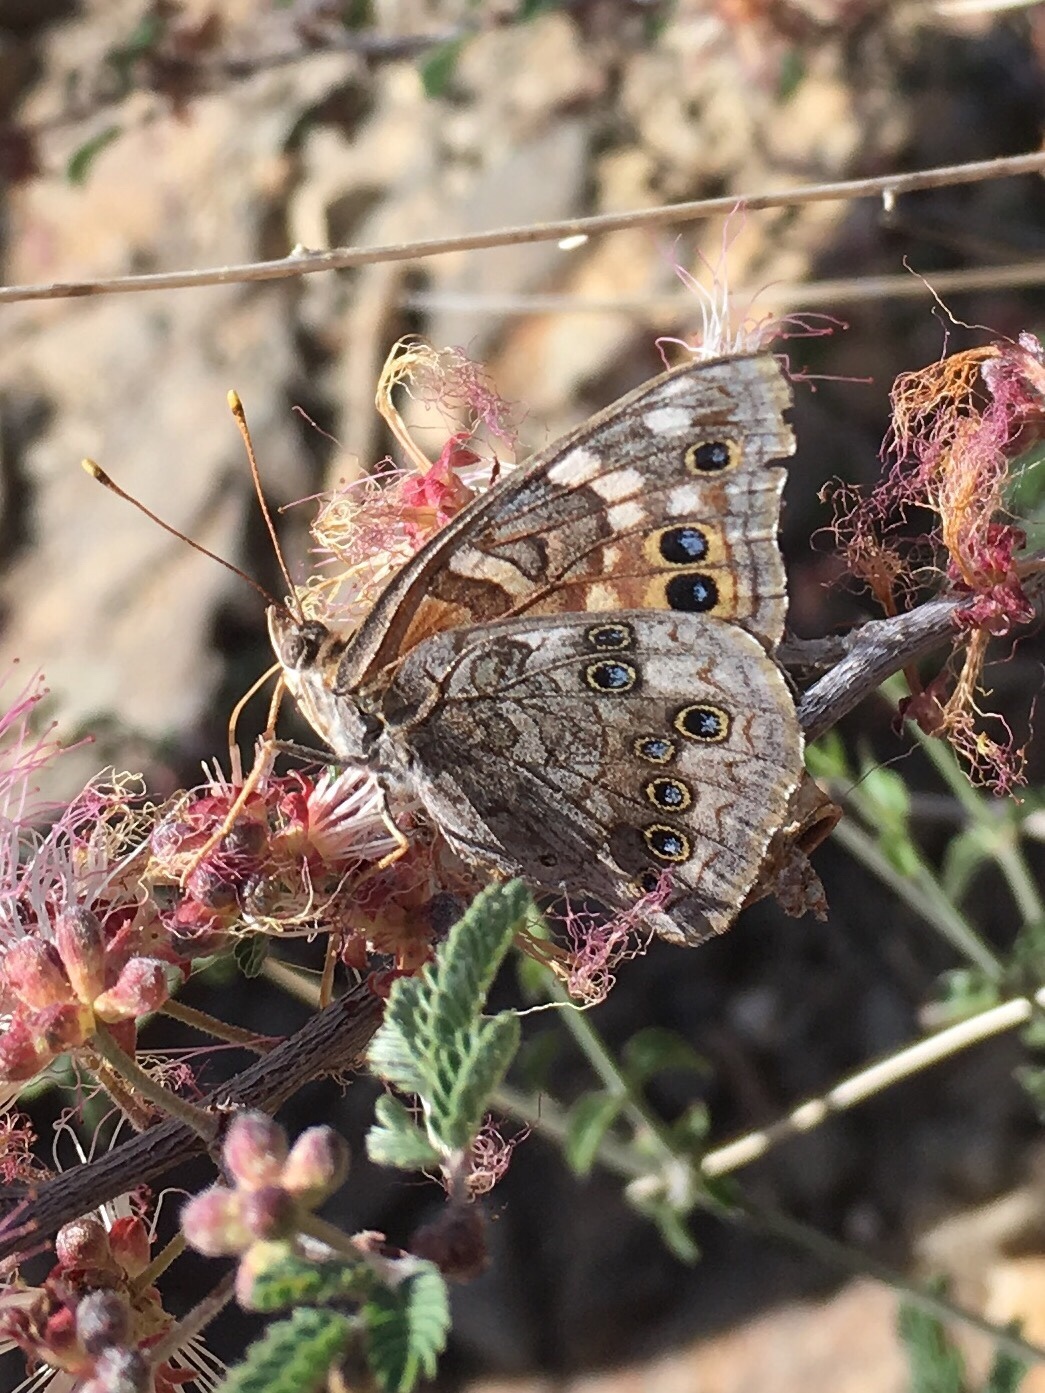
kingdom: Animalia
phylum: Arthropoda
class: Insecta
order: Lepidoptera
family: Nymphalidae
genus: Asterocampa
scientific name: Asterocampa leilia
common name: Empress leilia
